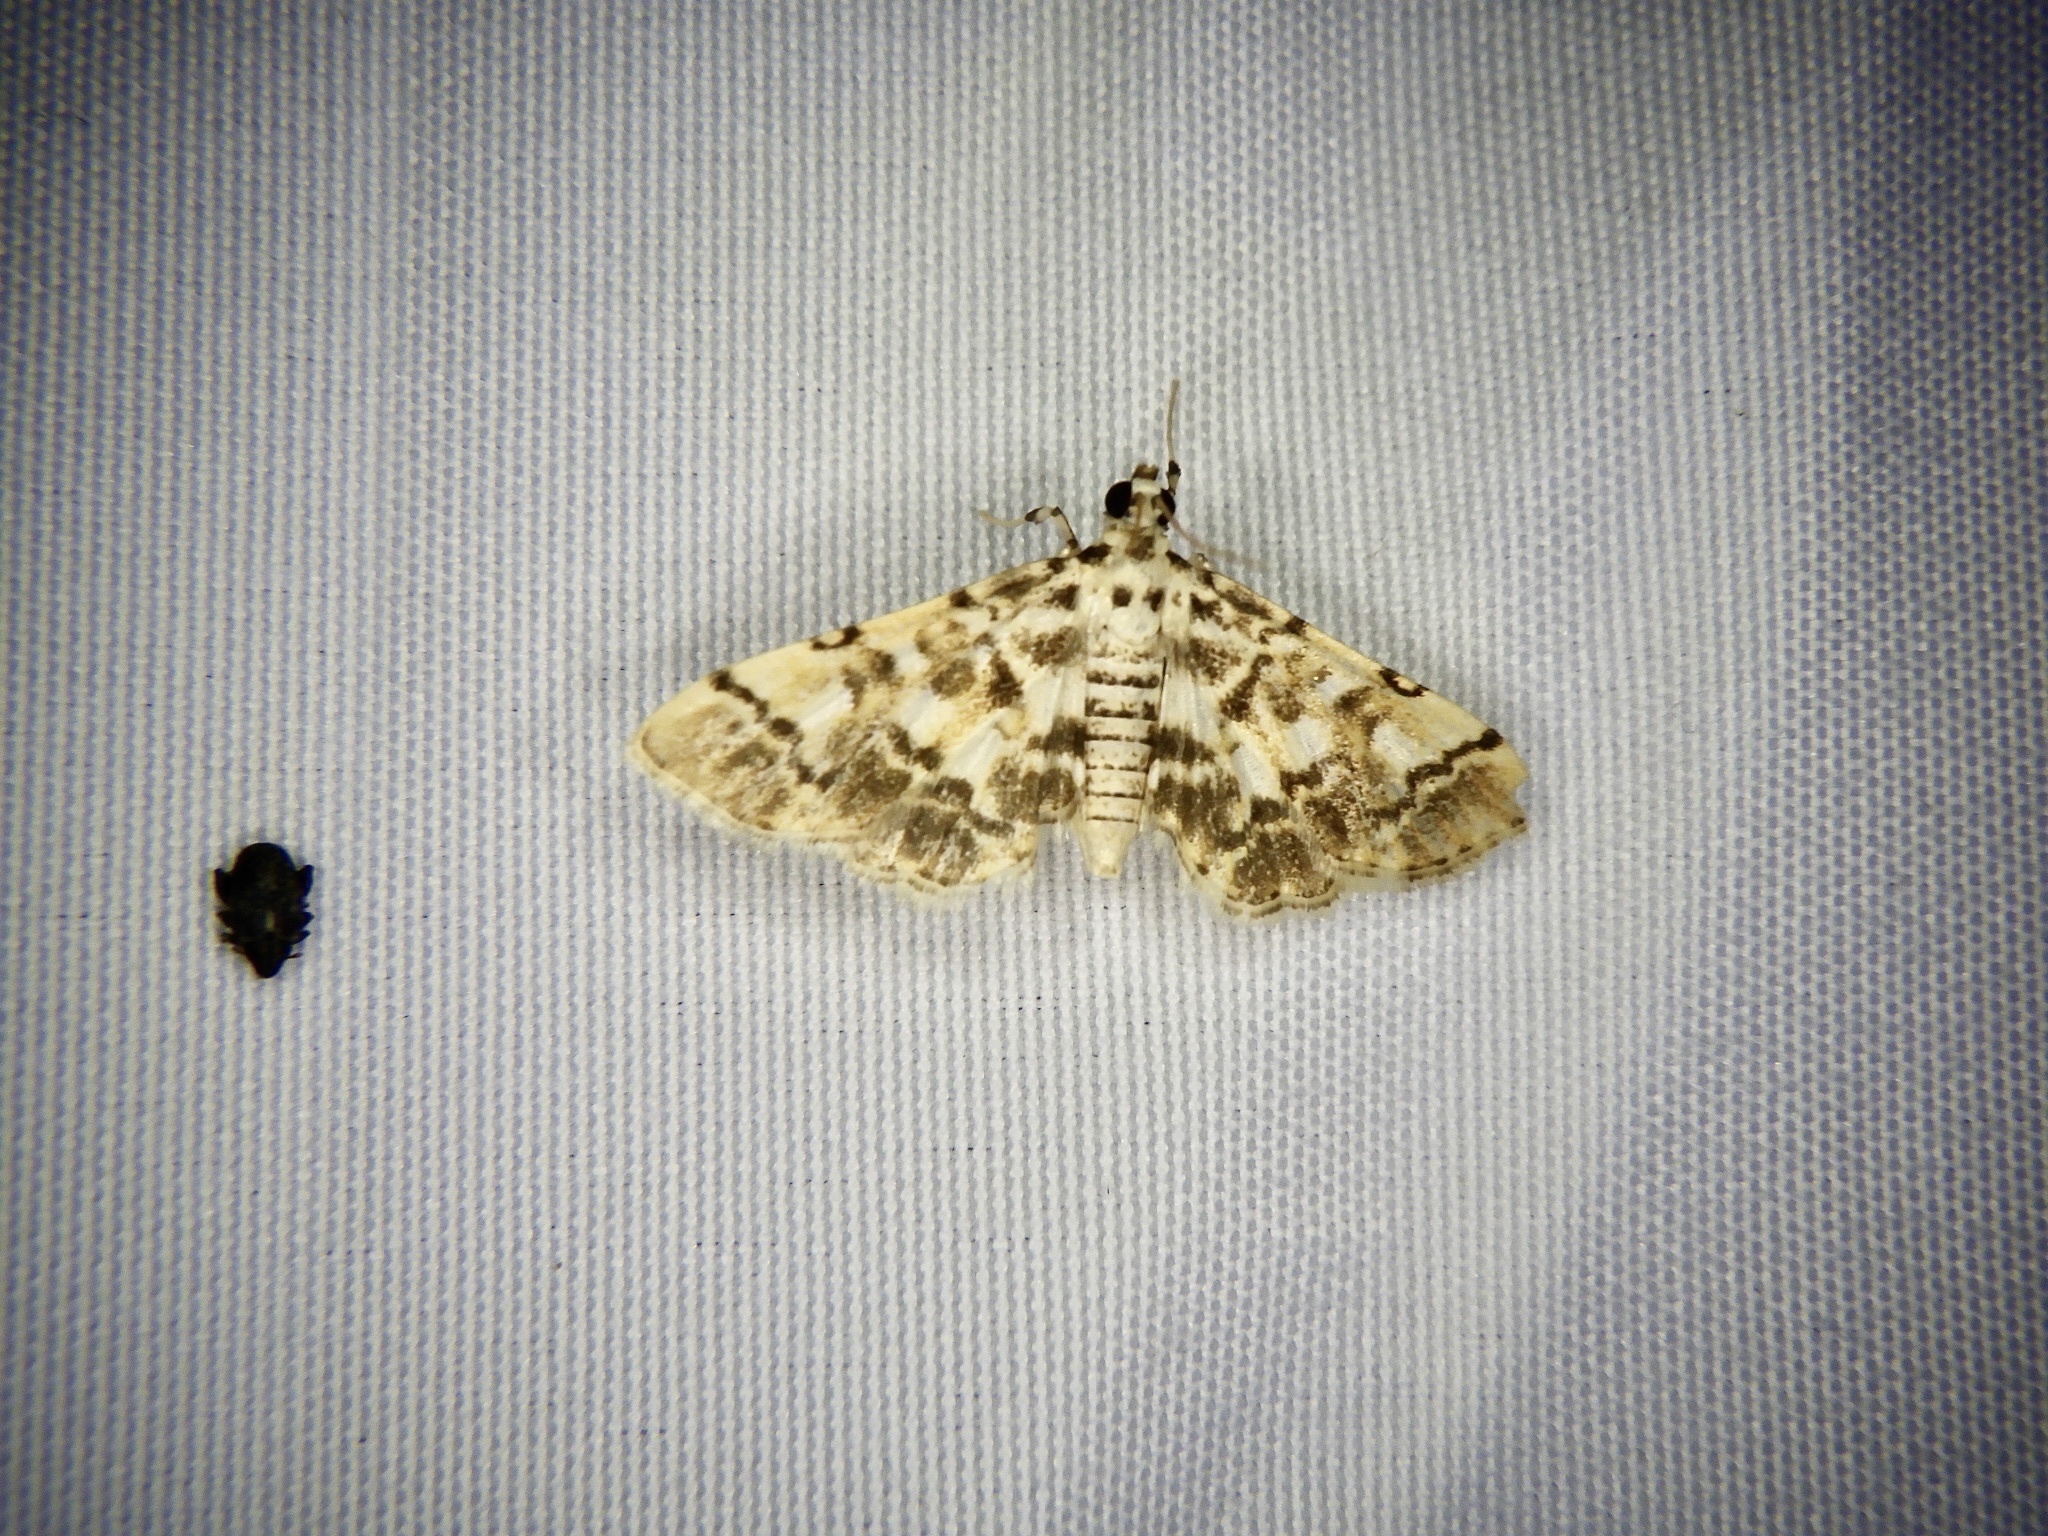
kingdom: Animalia
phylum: Arthropoda
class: Insecta
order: Lepidoptera
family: Crambidae
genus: Lamprosema
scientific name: Lamprosema commixta
